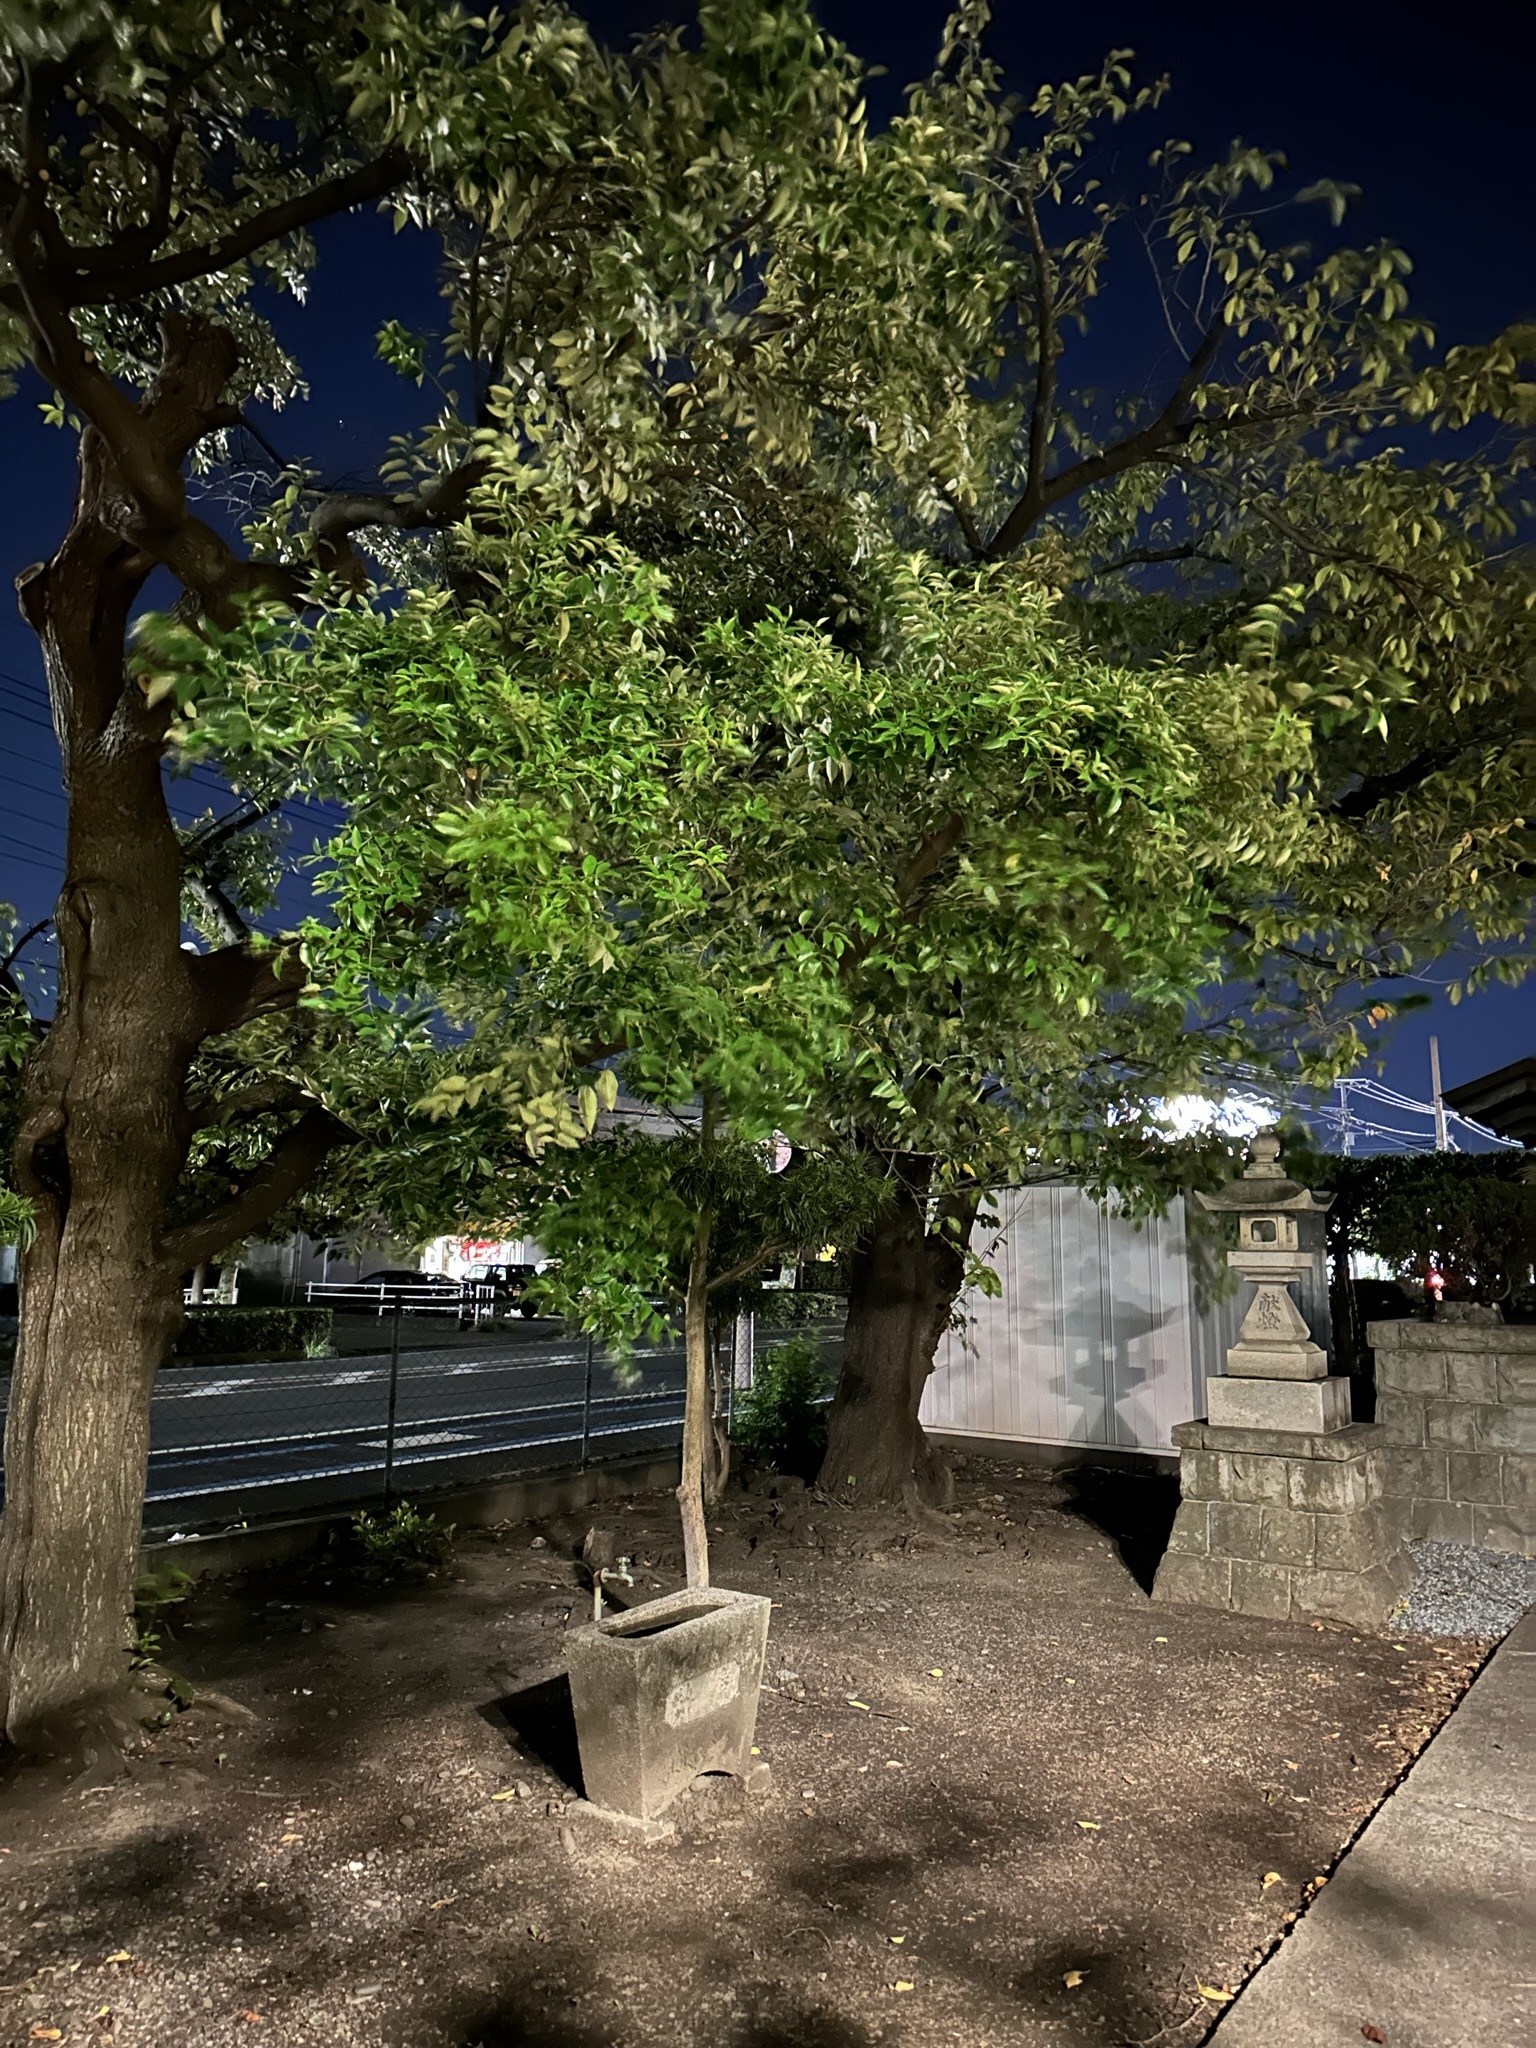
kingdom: Animalia
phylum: Arthropoda
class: Insecta
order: Orthoptera
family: Gryllidae
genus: Truljalia
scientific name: Truljalia hibinonis
